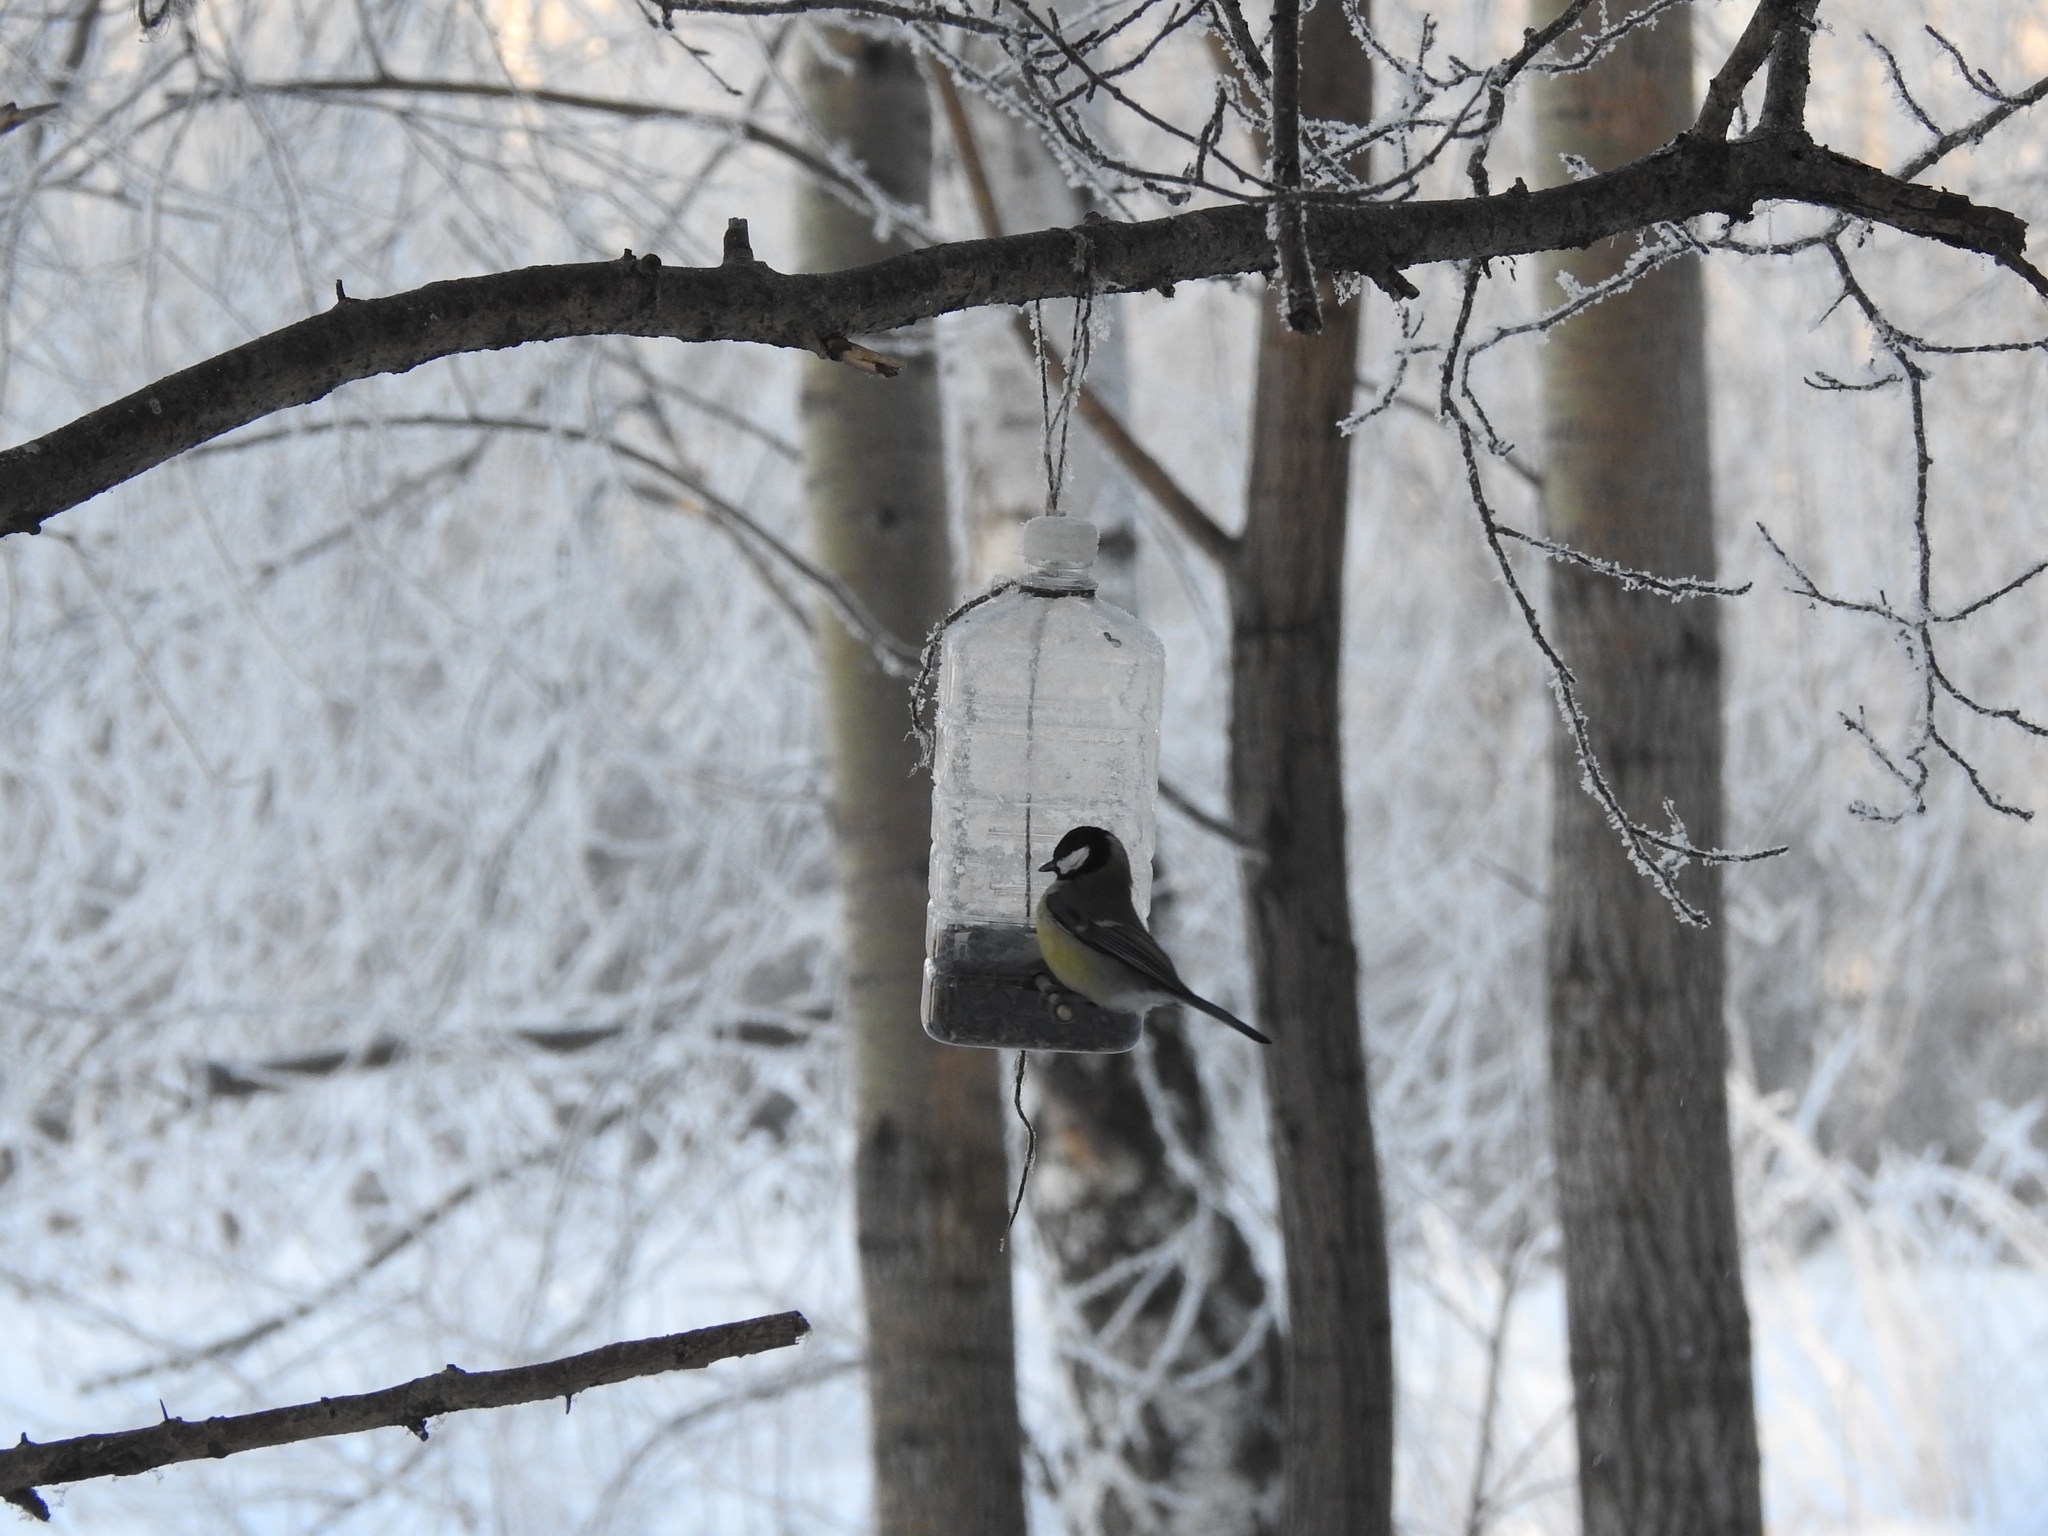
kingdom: Animalia
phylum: Chordata
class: Aves
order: Passeriformes
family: Paridae
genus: Parus
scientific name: Parus major
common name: Great tit
